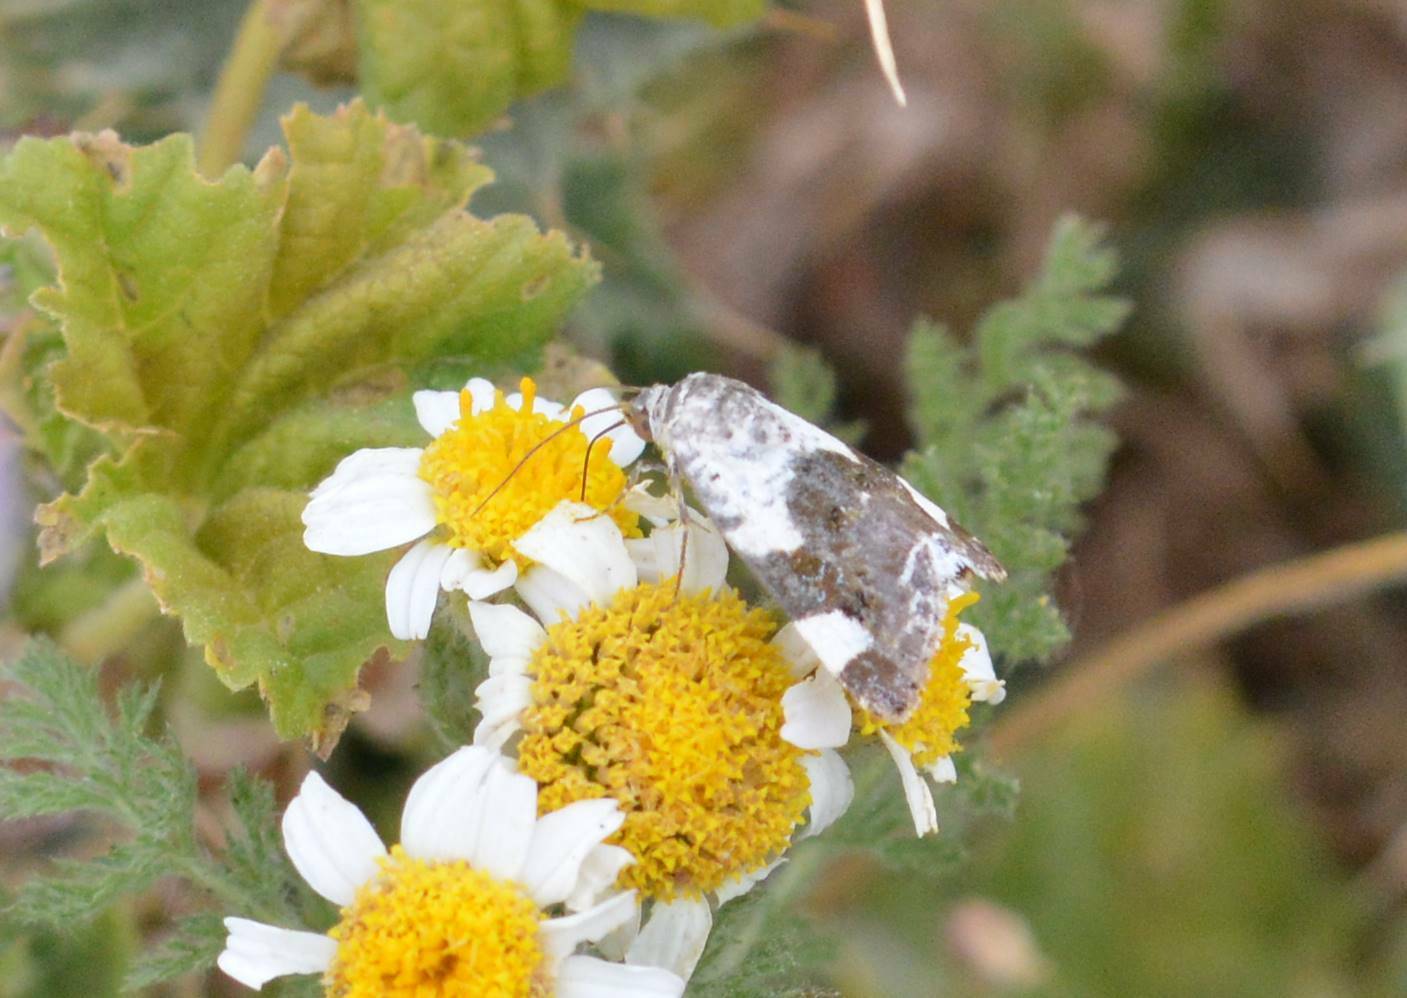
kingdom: Animalia
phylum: Arthropoda
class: Insecta
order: Lepidoptera
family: Noctuidae
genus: Acontia
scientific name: Acontia lucida
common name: Pale shoulder
